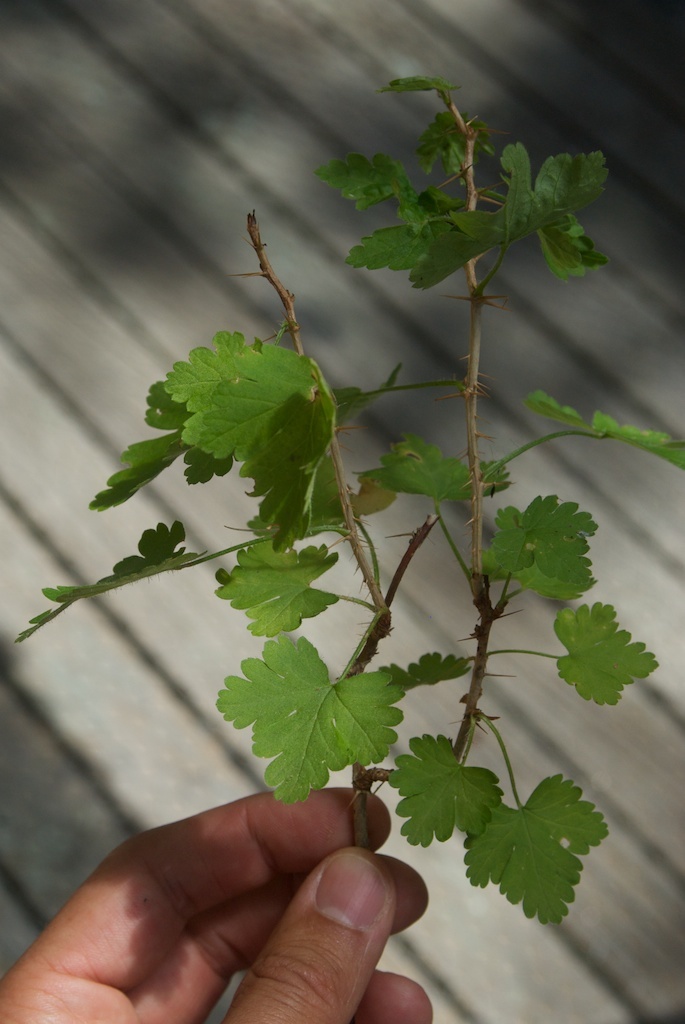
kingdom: Plantae
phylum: Tracheophyta
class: Magnoliopsida
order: Saxifragales
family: Grossulariaceae
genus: Ribes
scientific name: Ribes uva-crispa
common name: Gooseberry
